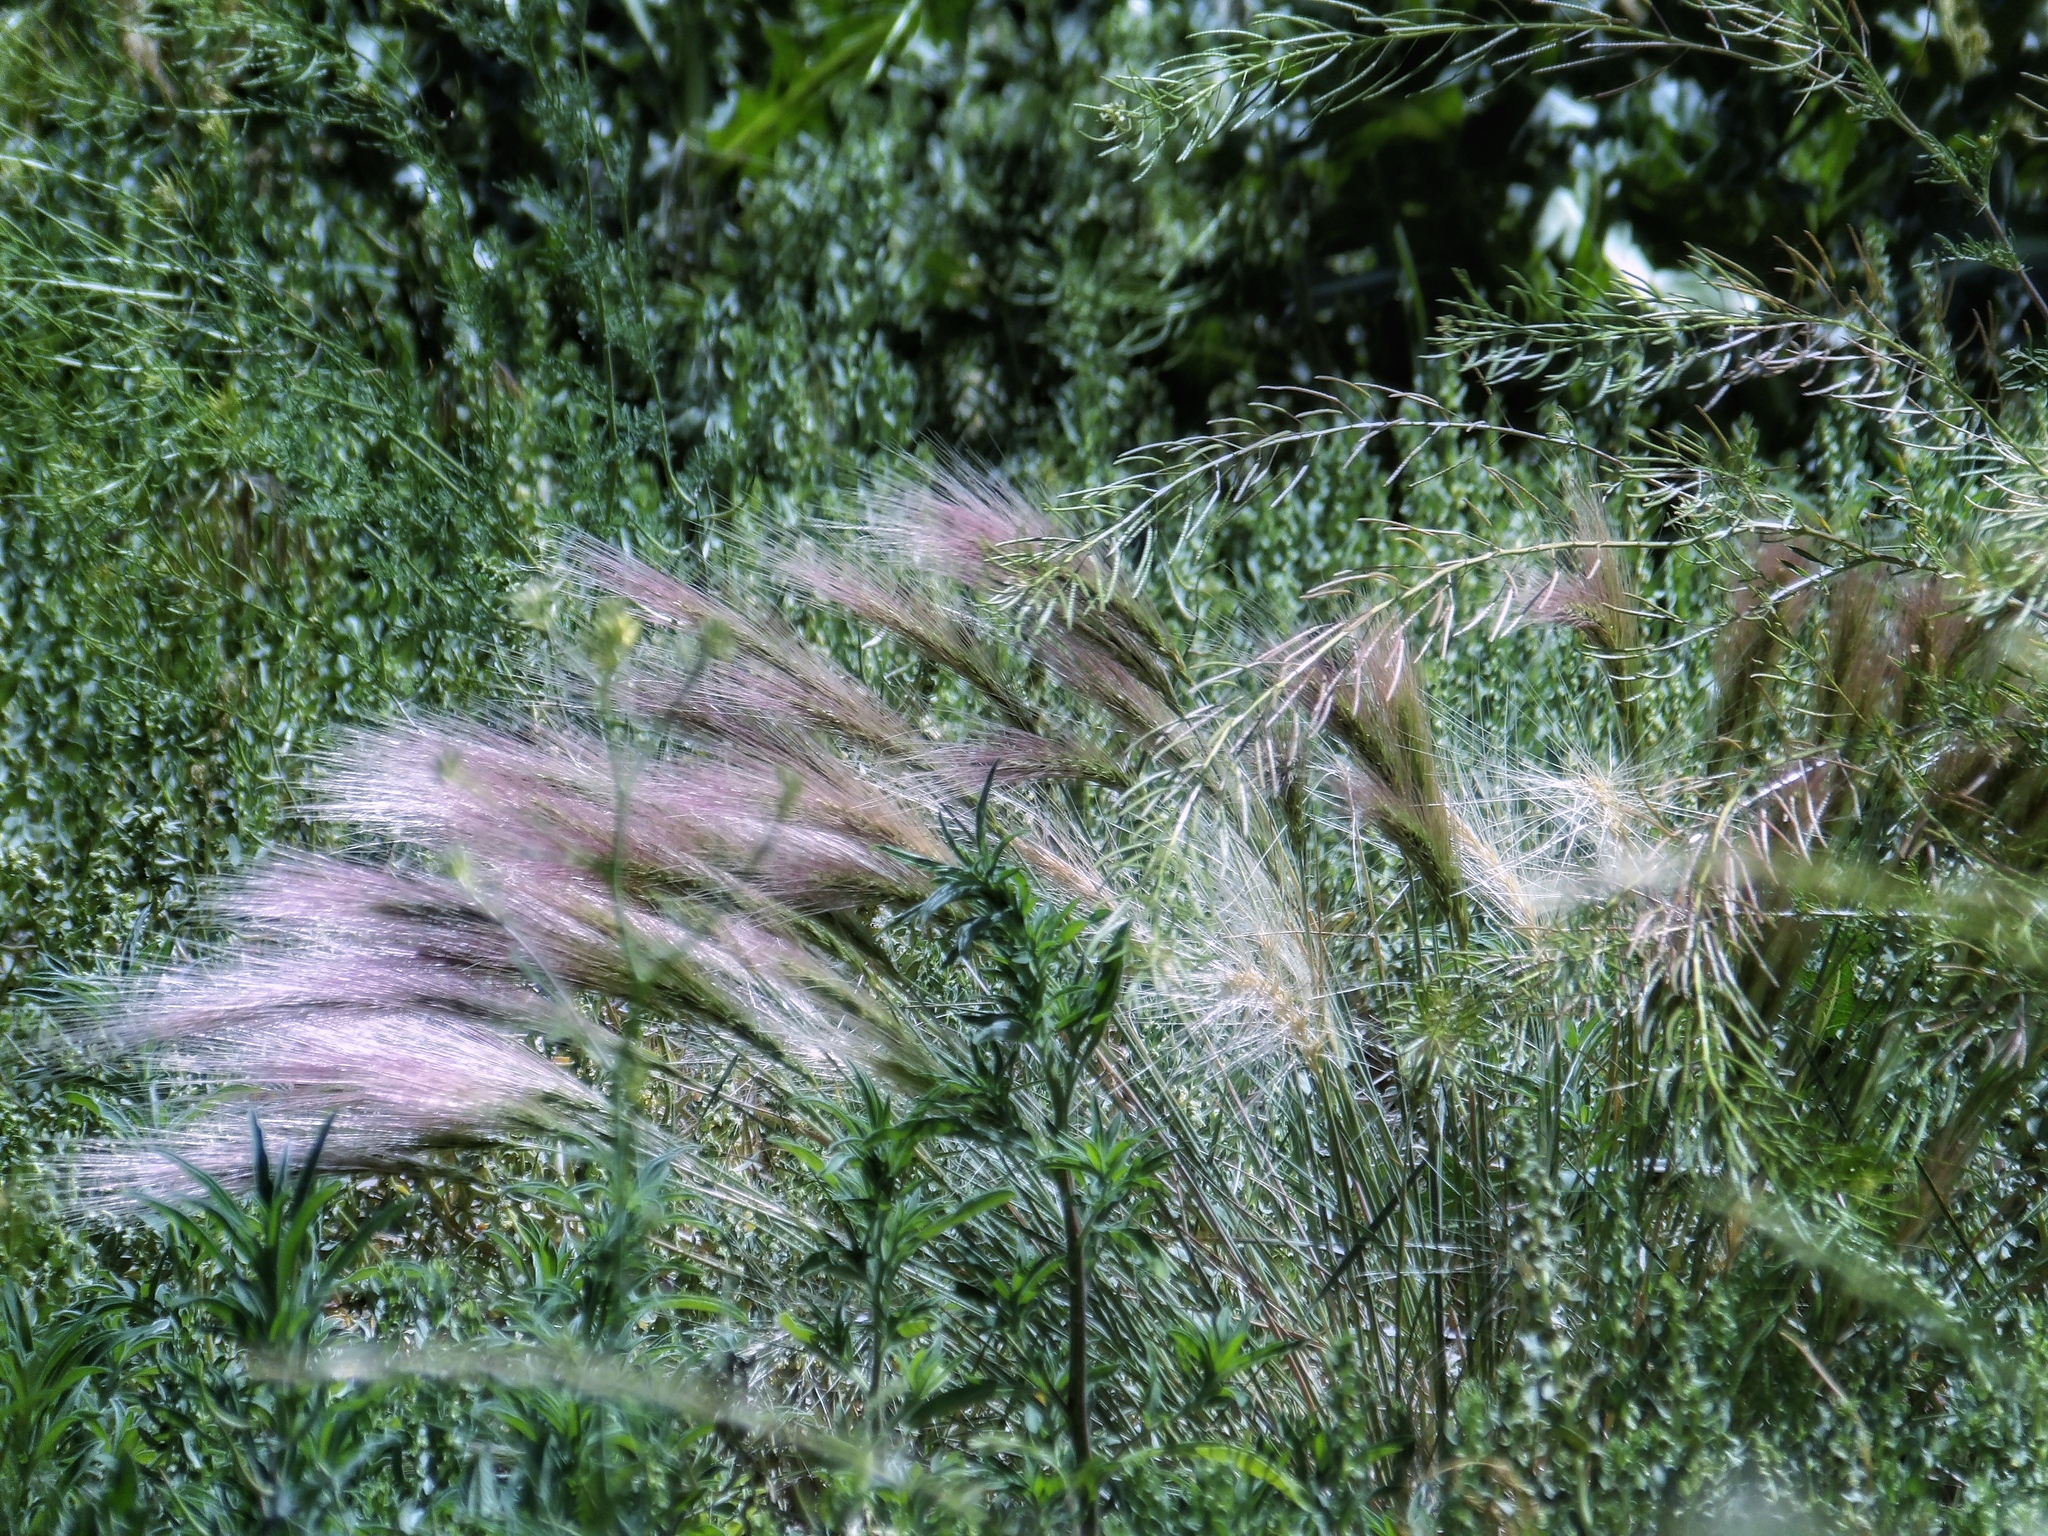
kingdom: Plantae
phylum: Tracheophyta
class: Liliopsida
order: Poales
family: Poaceae
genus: Hordeum
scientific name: Hordeum jubatum
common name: Foxtail barley
